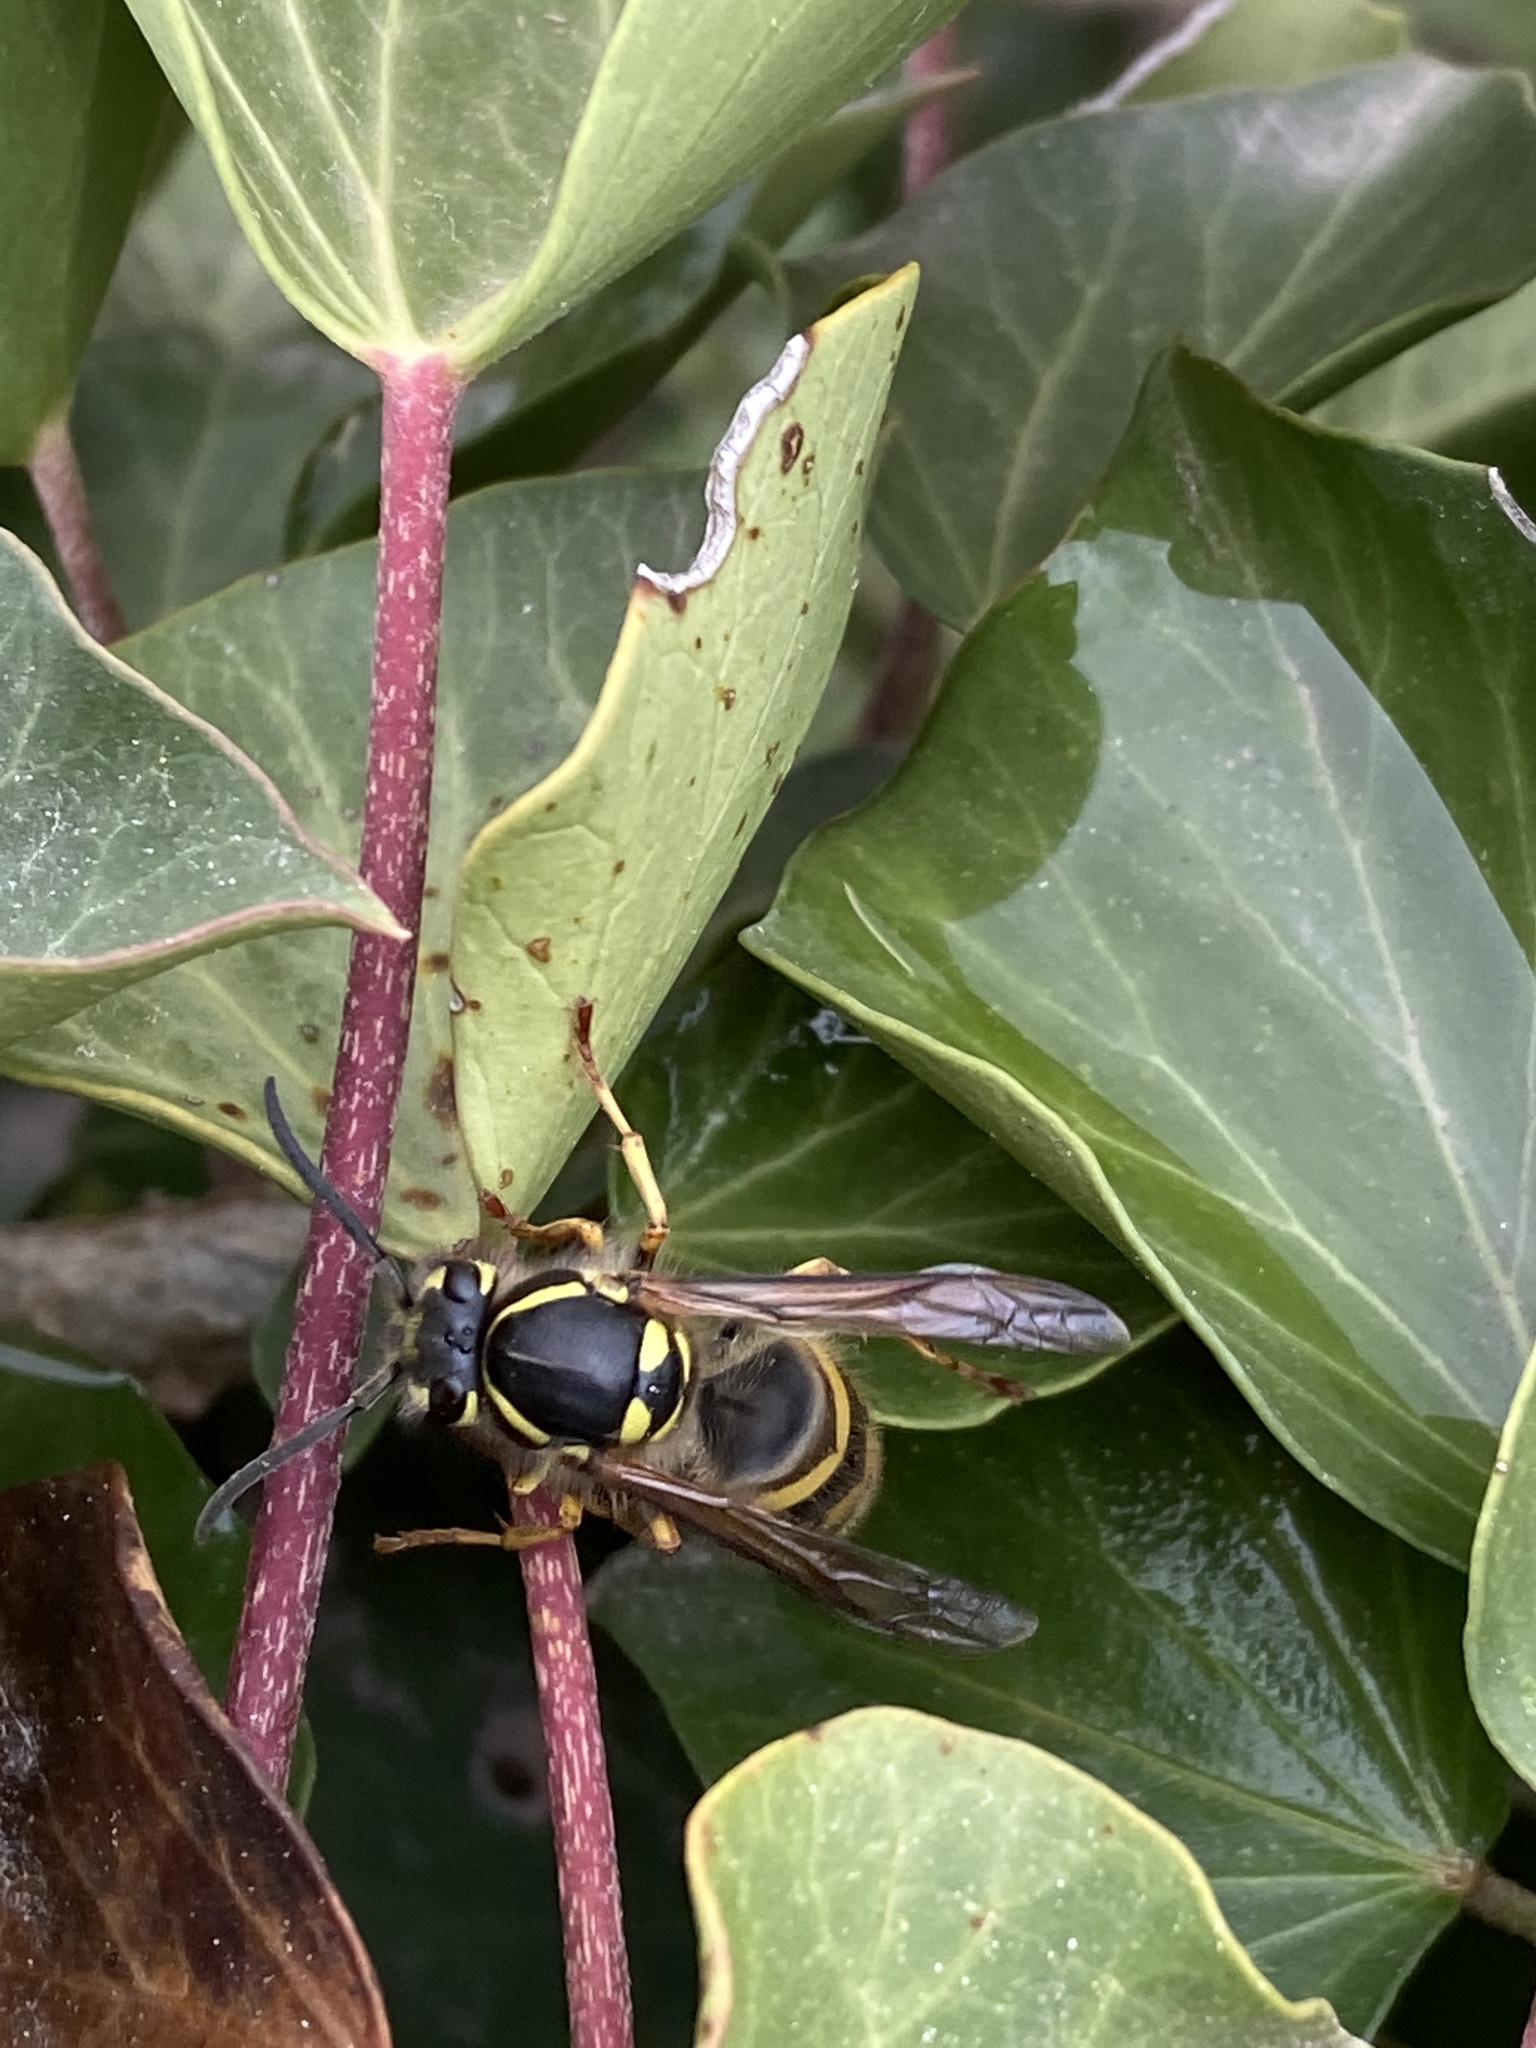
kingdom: Animalia
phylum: Arthropoda
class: Insecta
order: Hymenoptera
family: Vespidae
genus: Vespula
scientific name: Vespula vulgaris
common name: Common wasp
